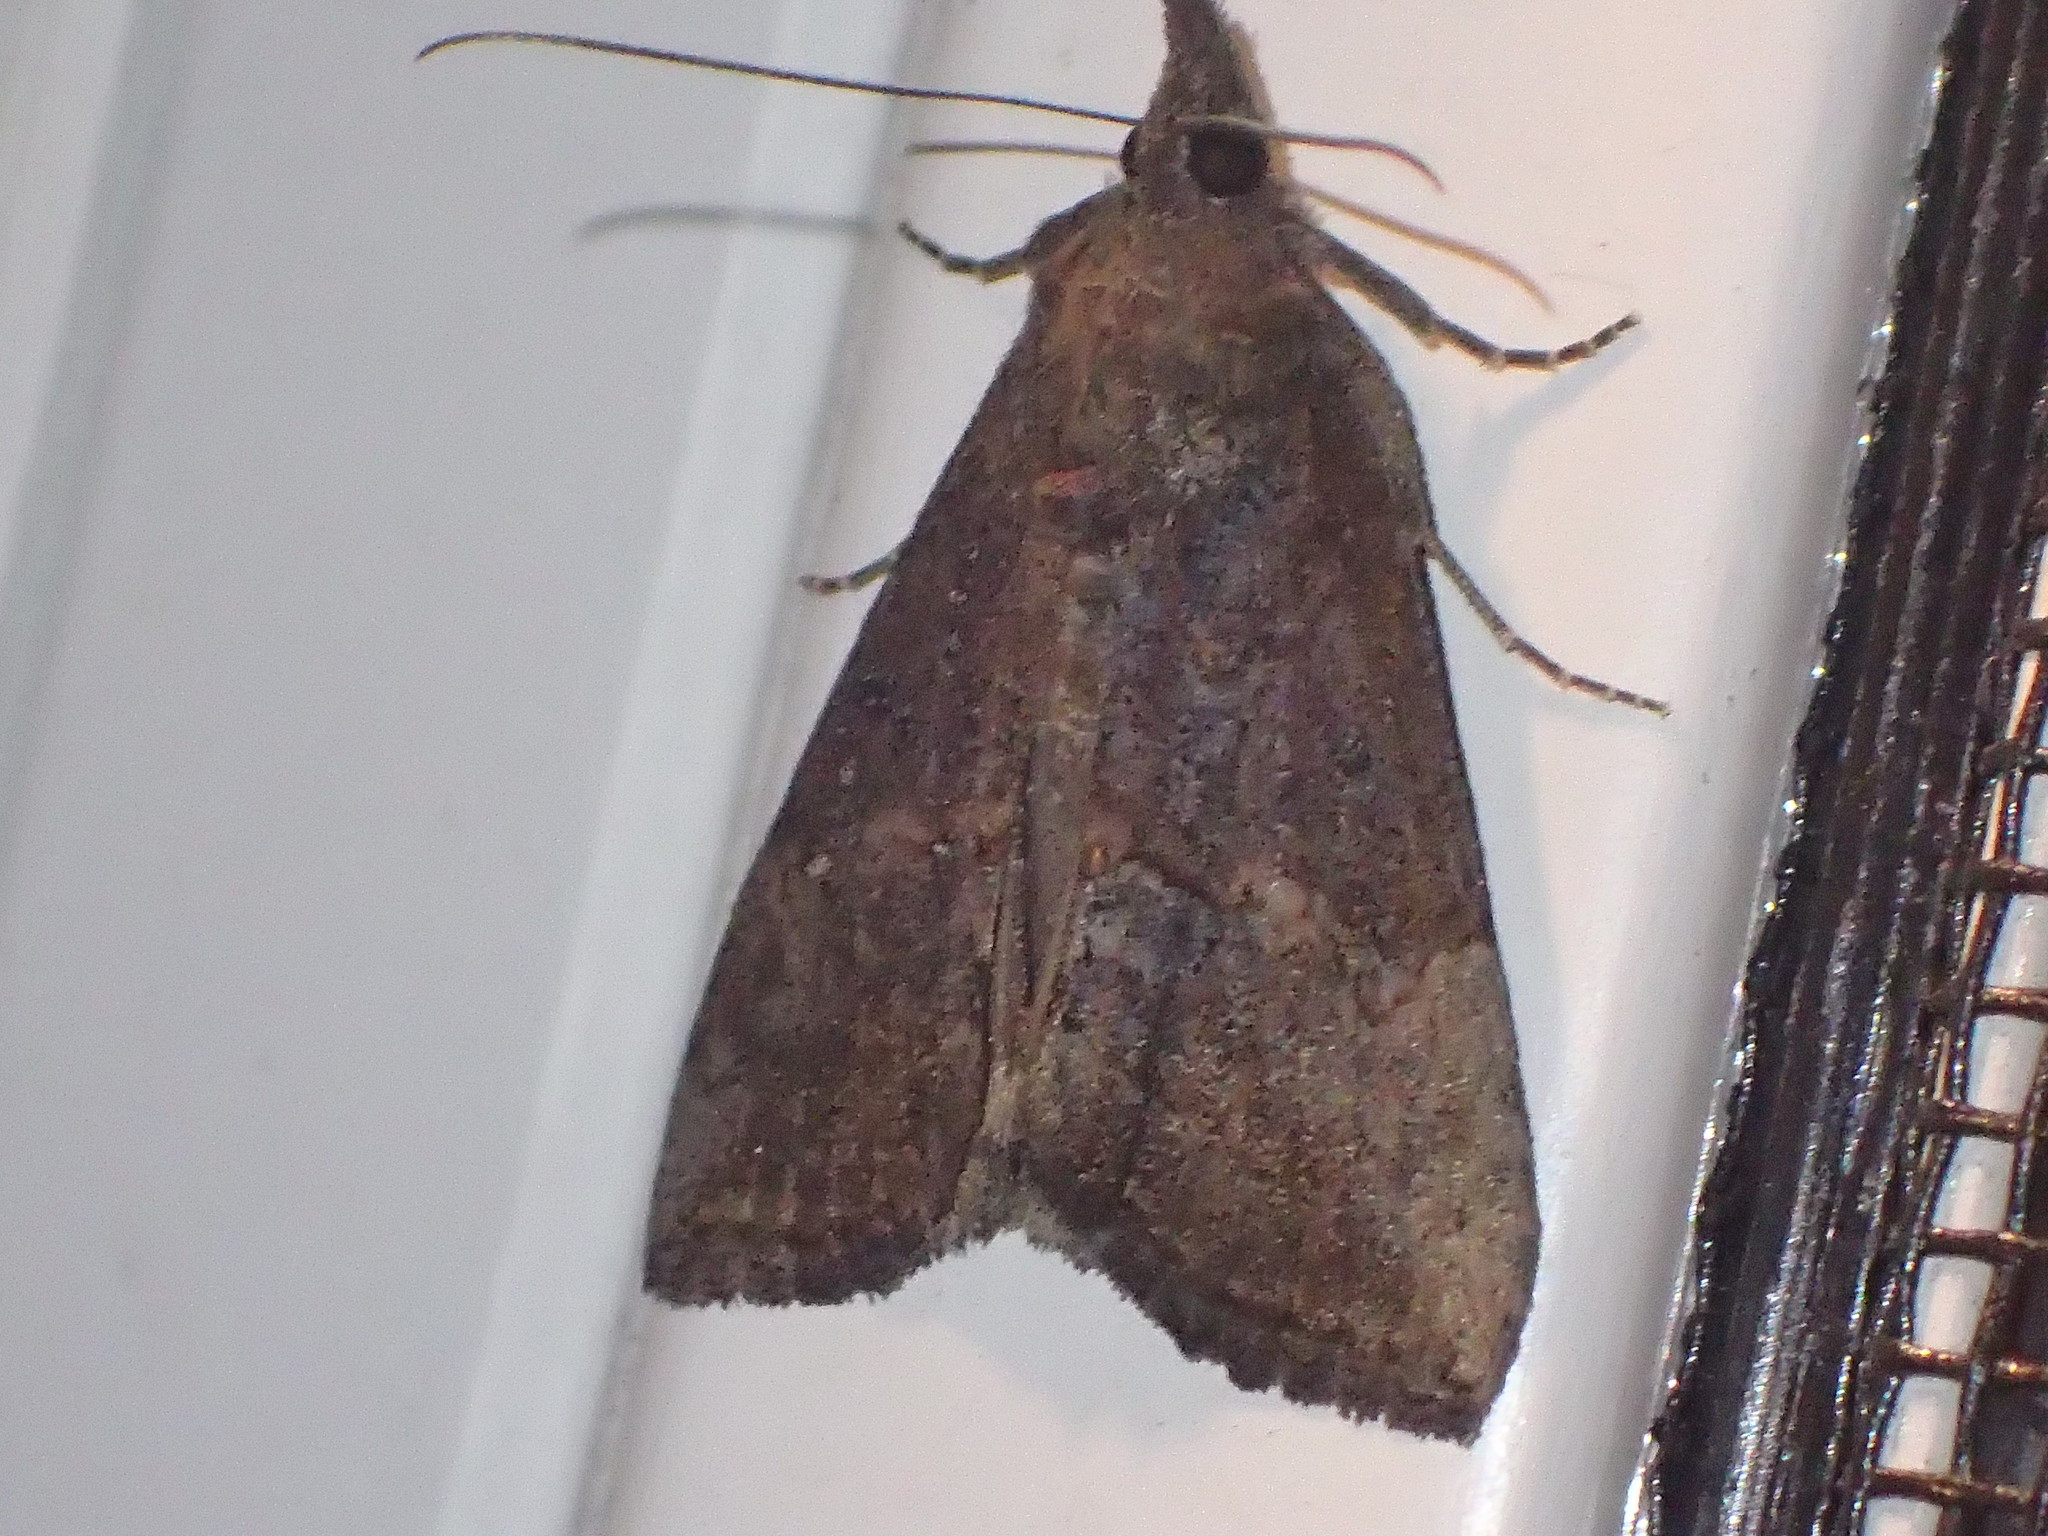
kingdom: Animalia
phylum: Arthropoda
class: Insecta
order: Lepidoptera
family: Erebidae
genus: Hypena
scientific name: Hypena scabra
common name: Green cloverworm
